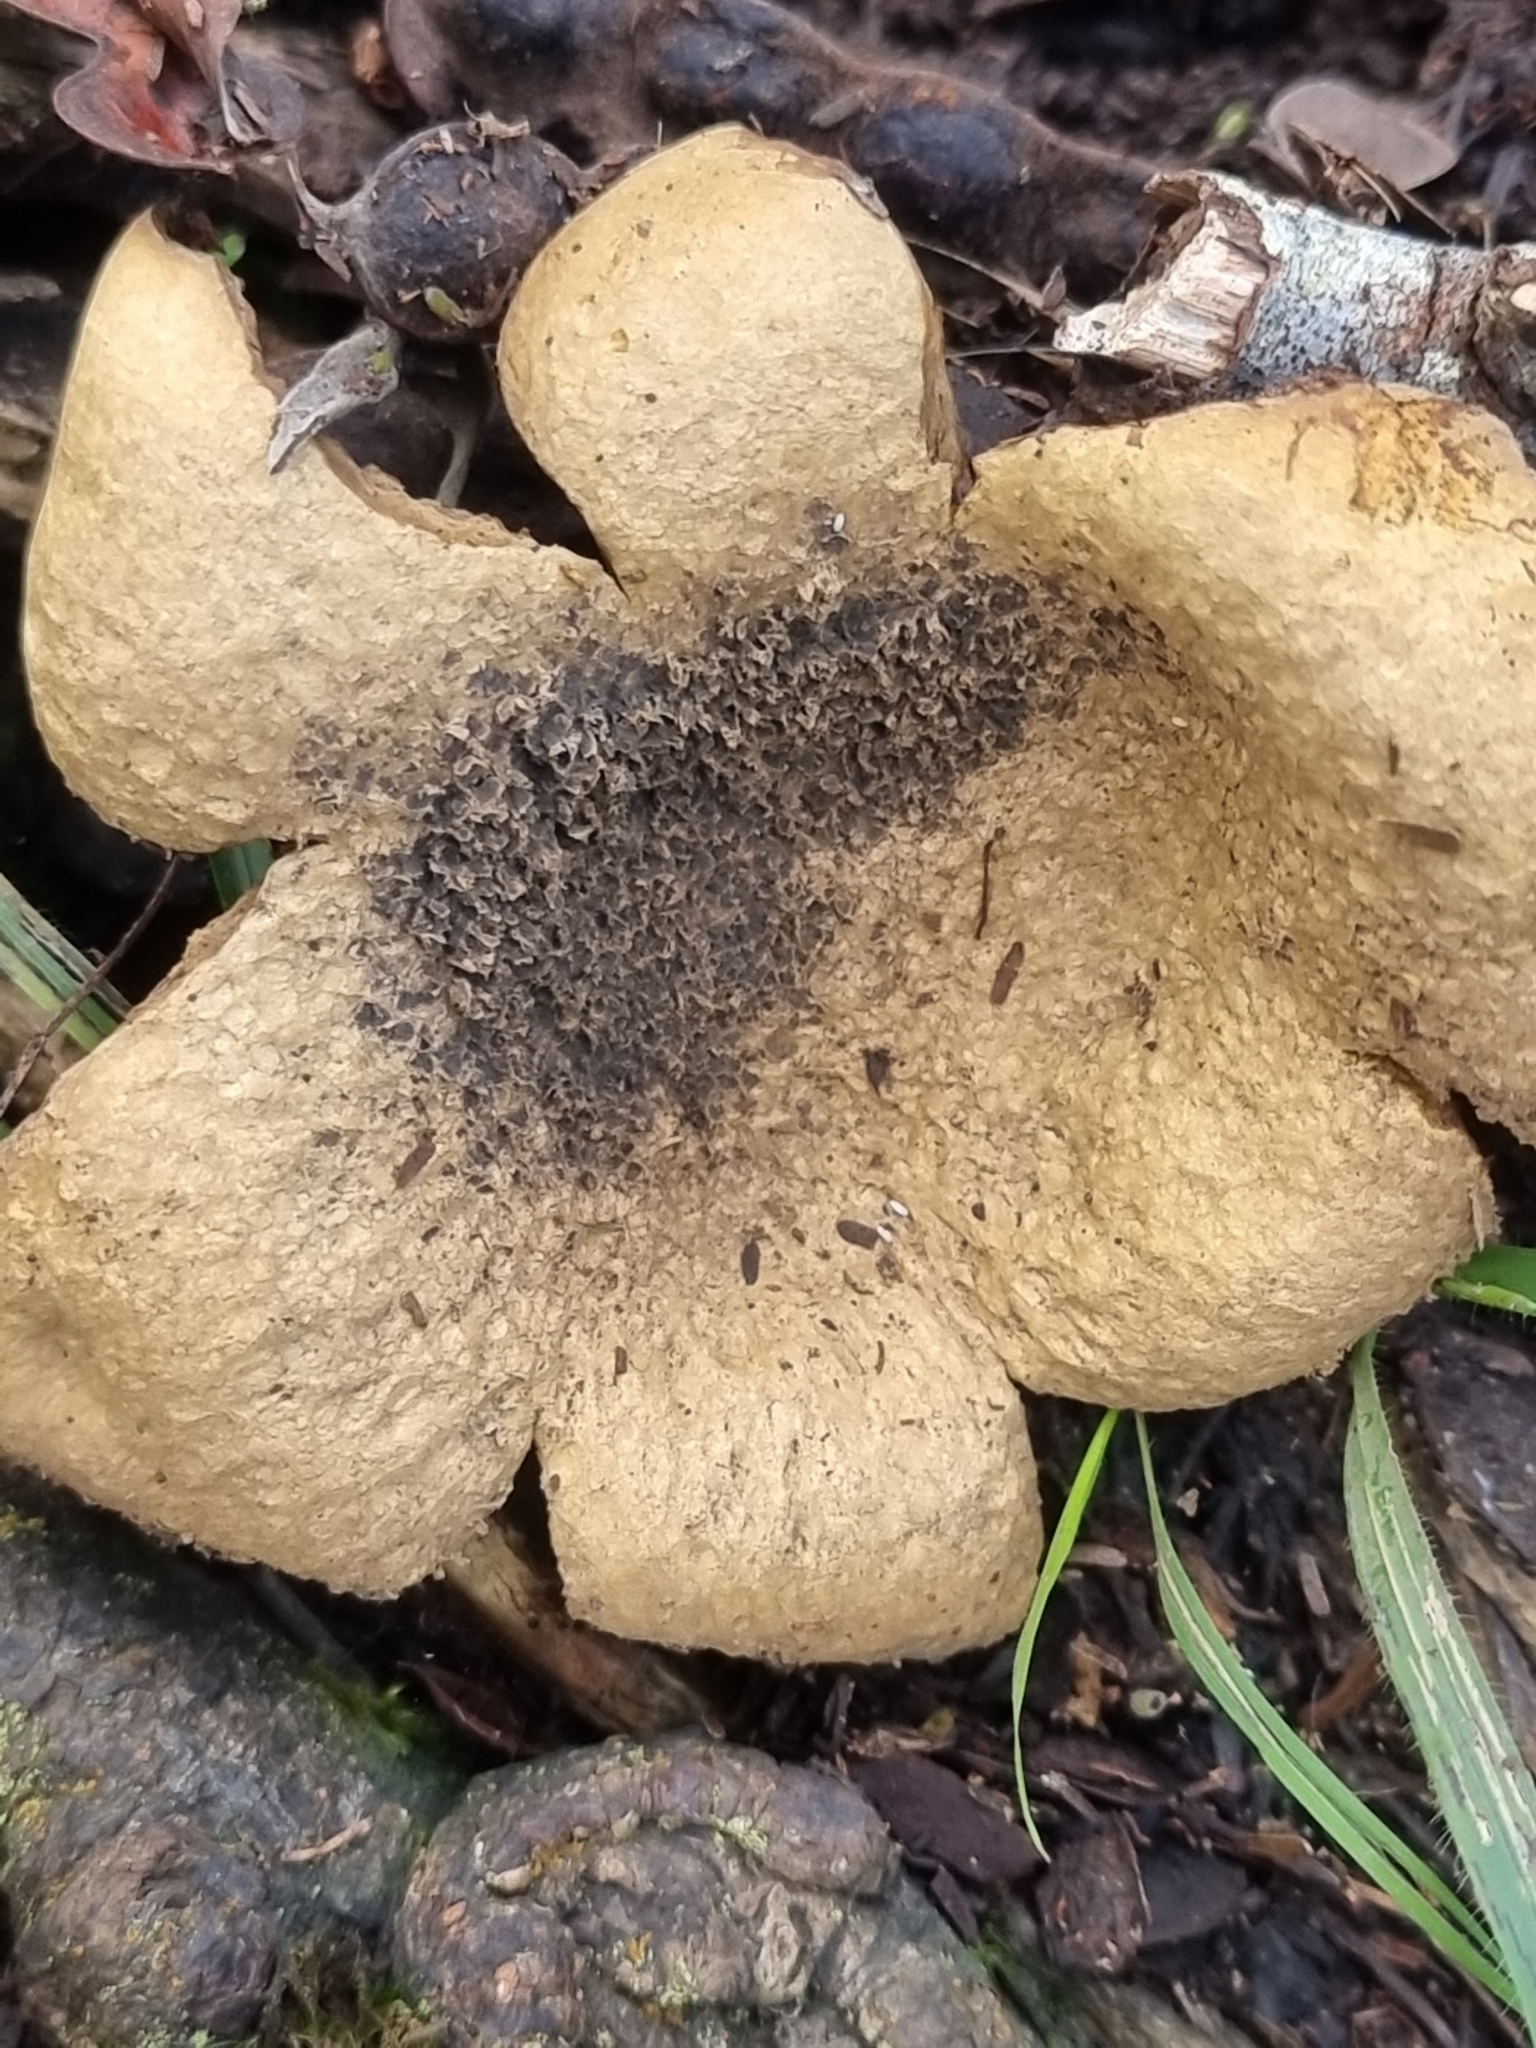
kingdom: Fungi
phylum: Basidiomycota
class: Agaricomycetes
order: Boletales
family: Sclerodermataceae
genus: Scleroderma
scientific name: Scleroderma polyrhizum
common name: Many-rooted earthball
